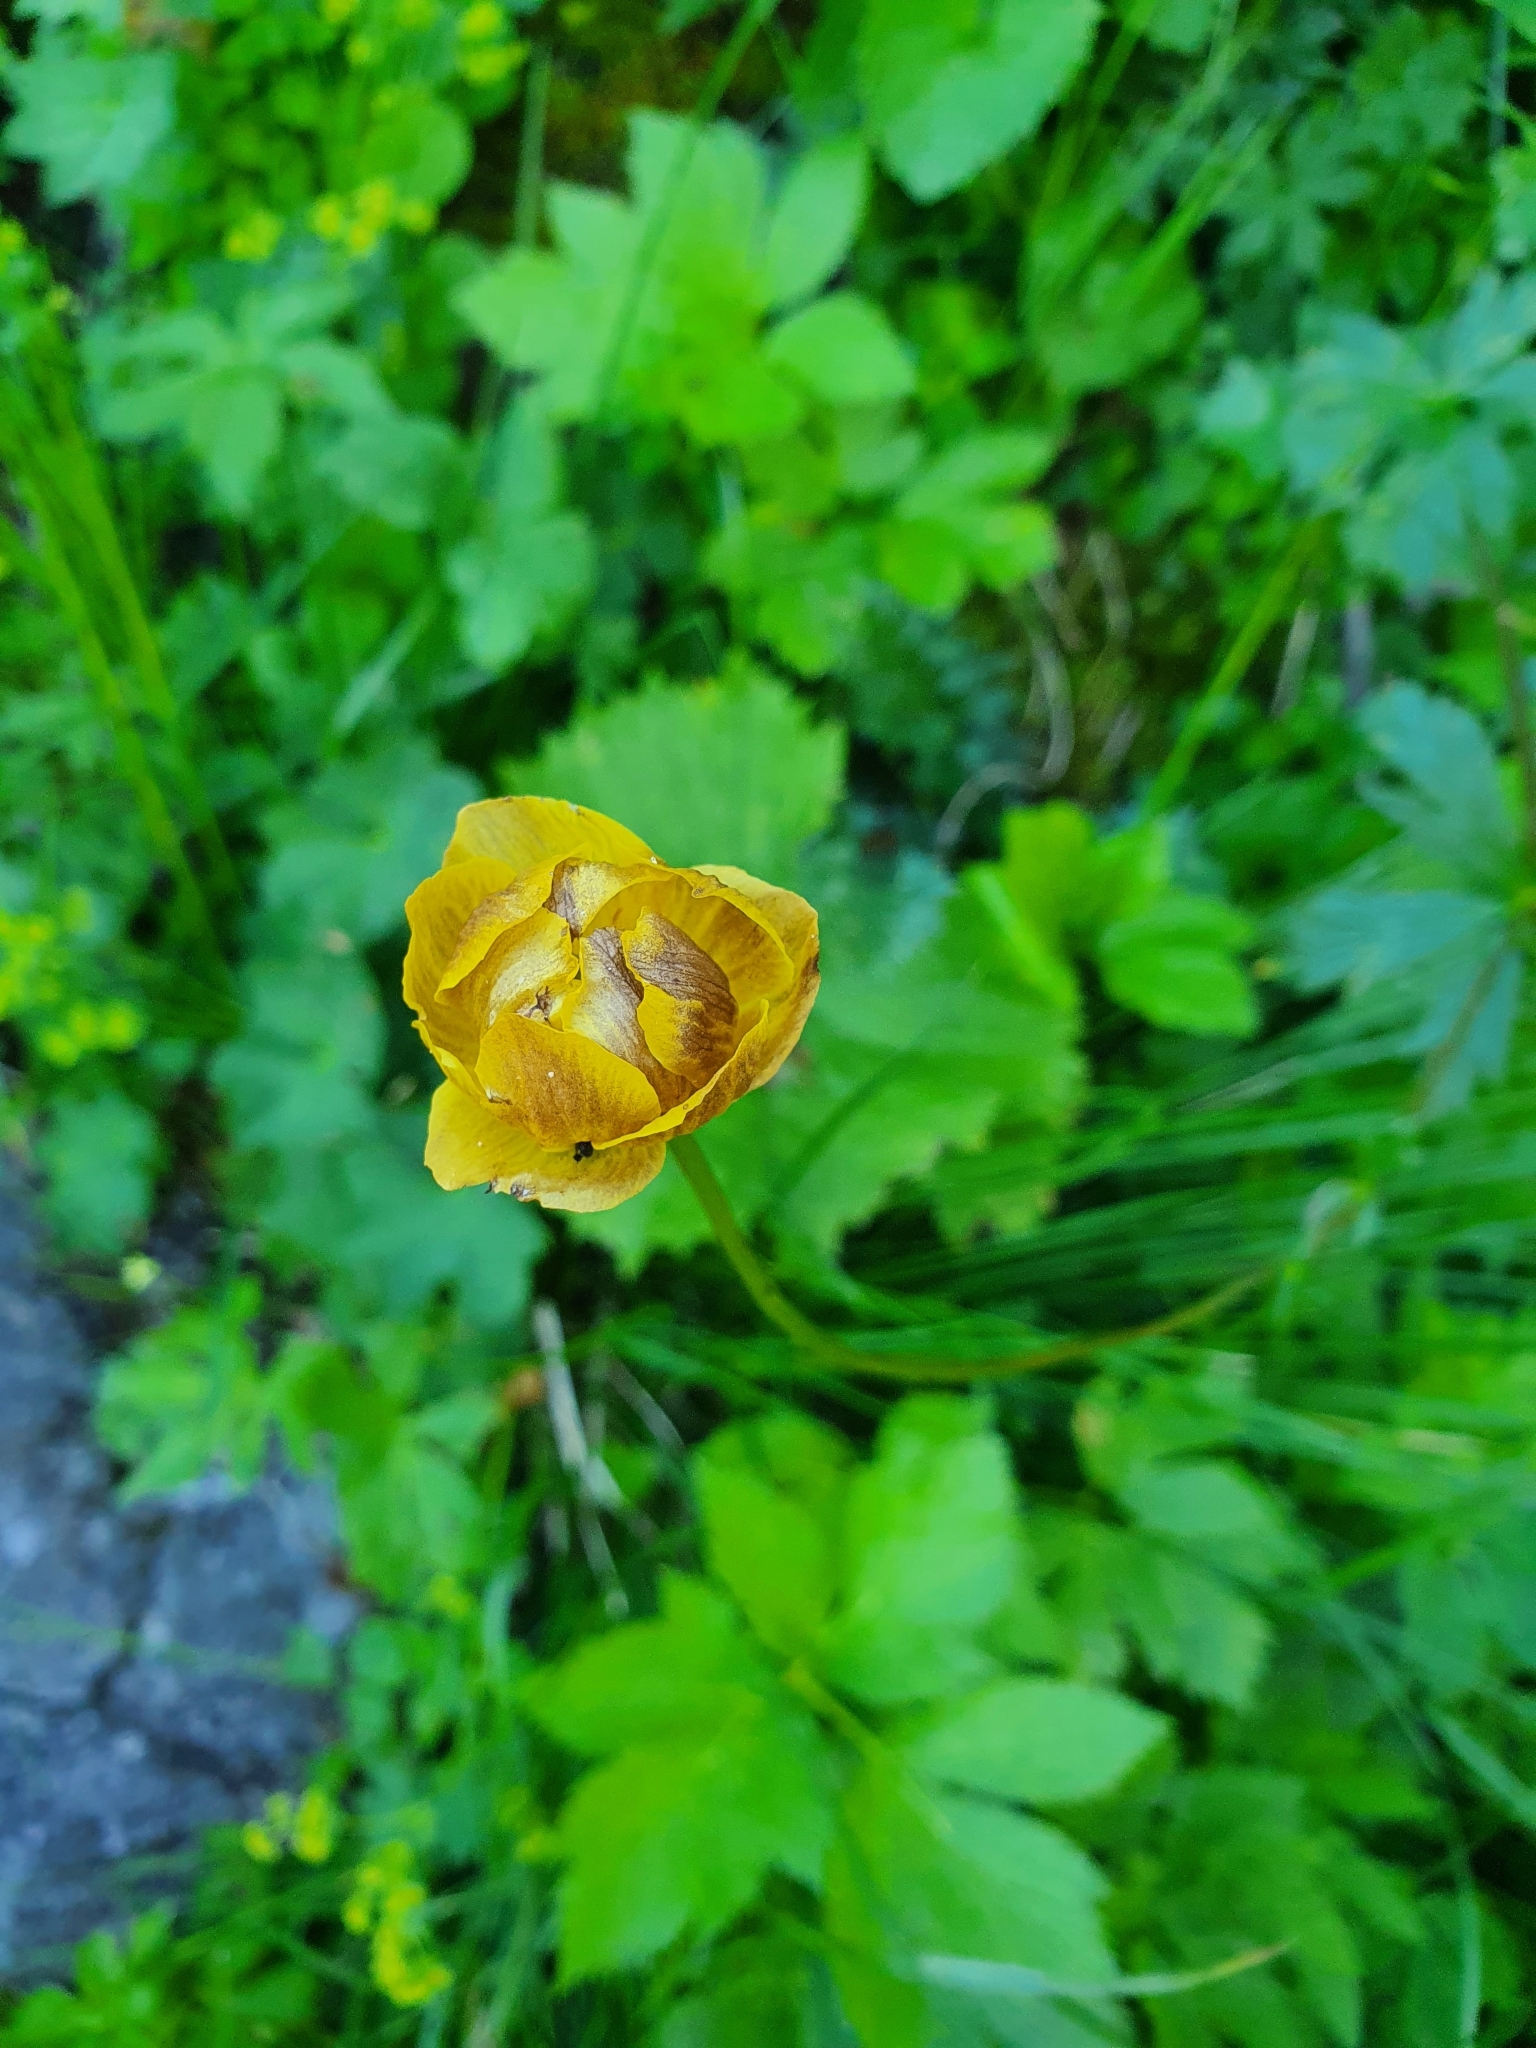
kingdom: Plantae
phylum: Tracheophyta
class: Magnoliopsida
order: Ranunculales
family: Ranunculaceae
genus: Trollius
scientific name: Trollius europaeus
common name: European globeflower
